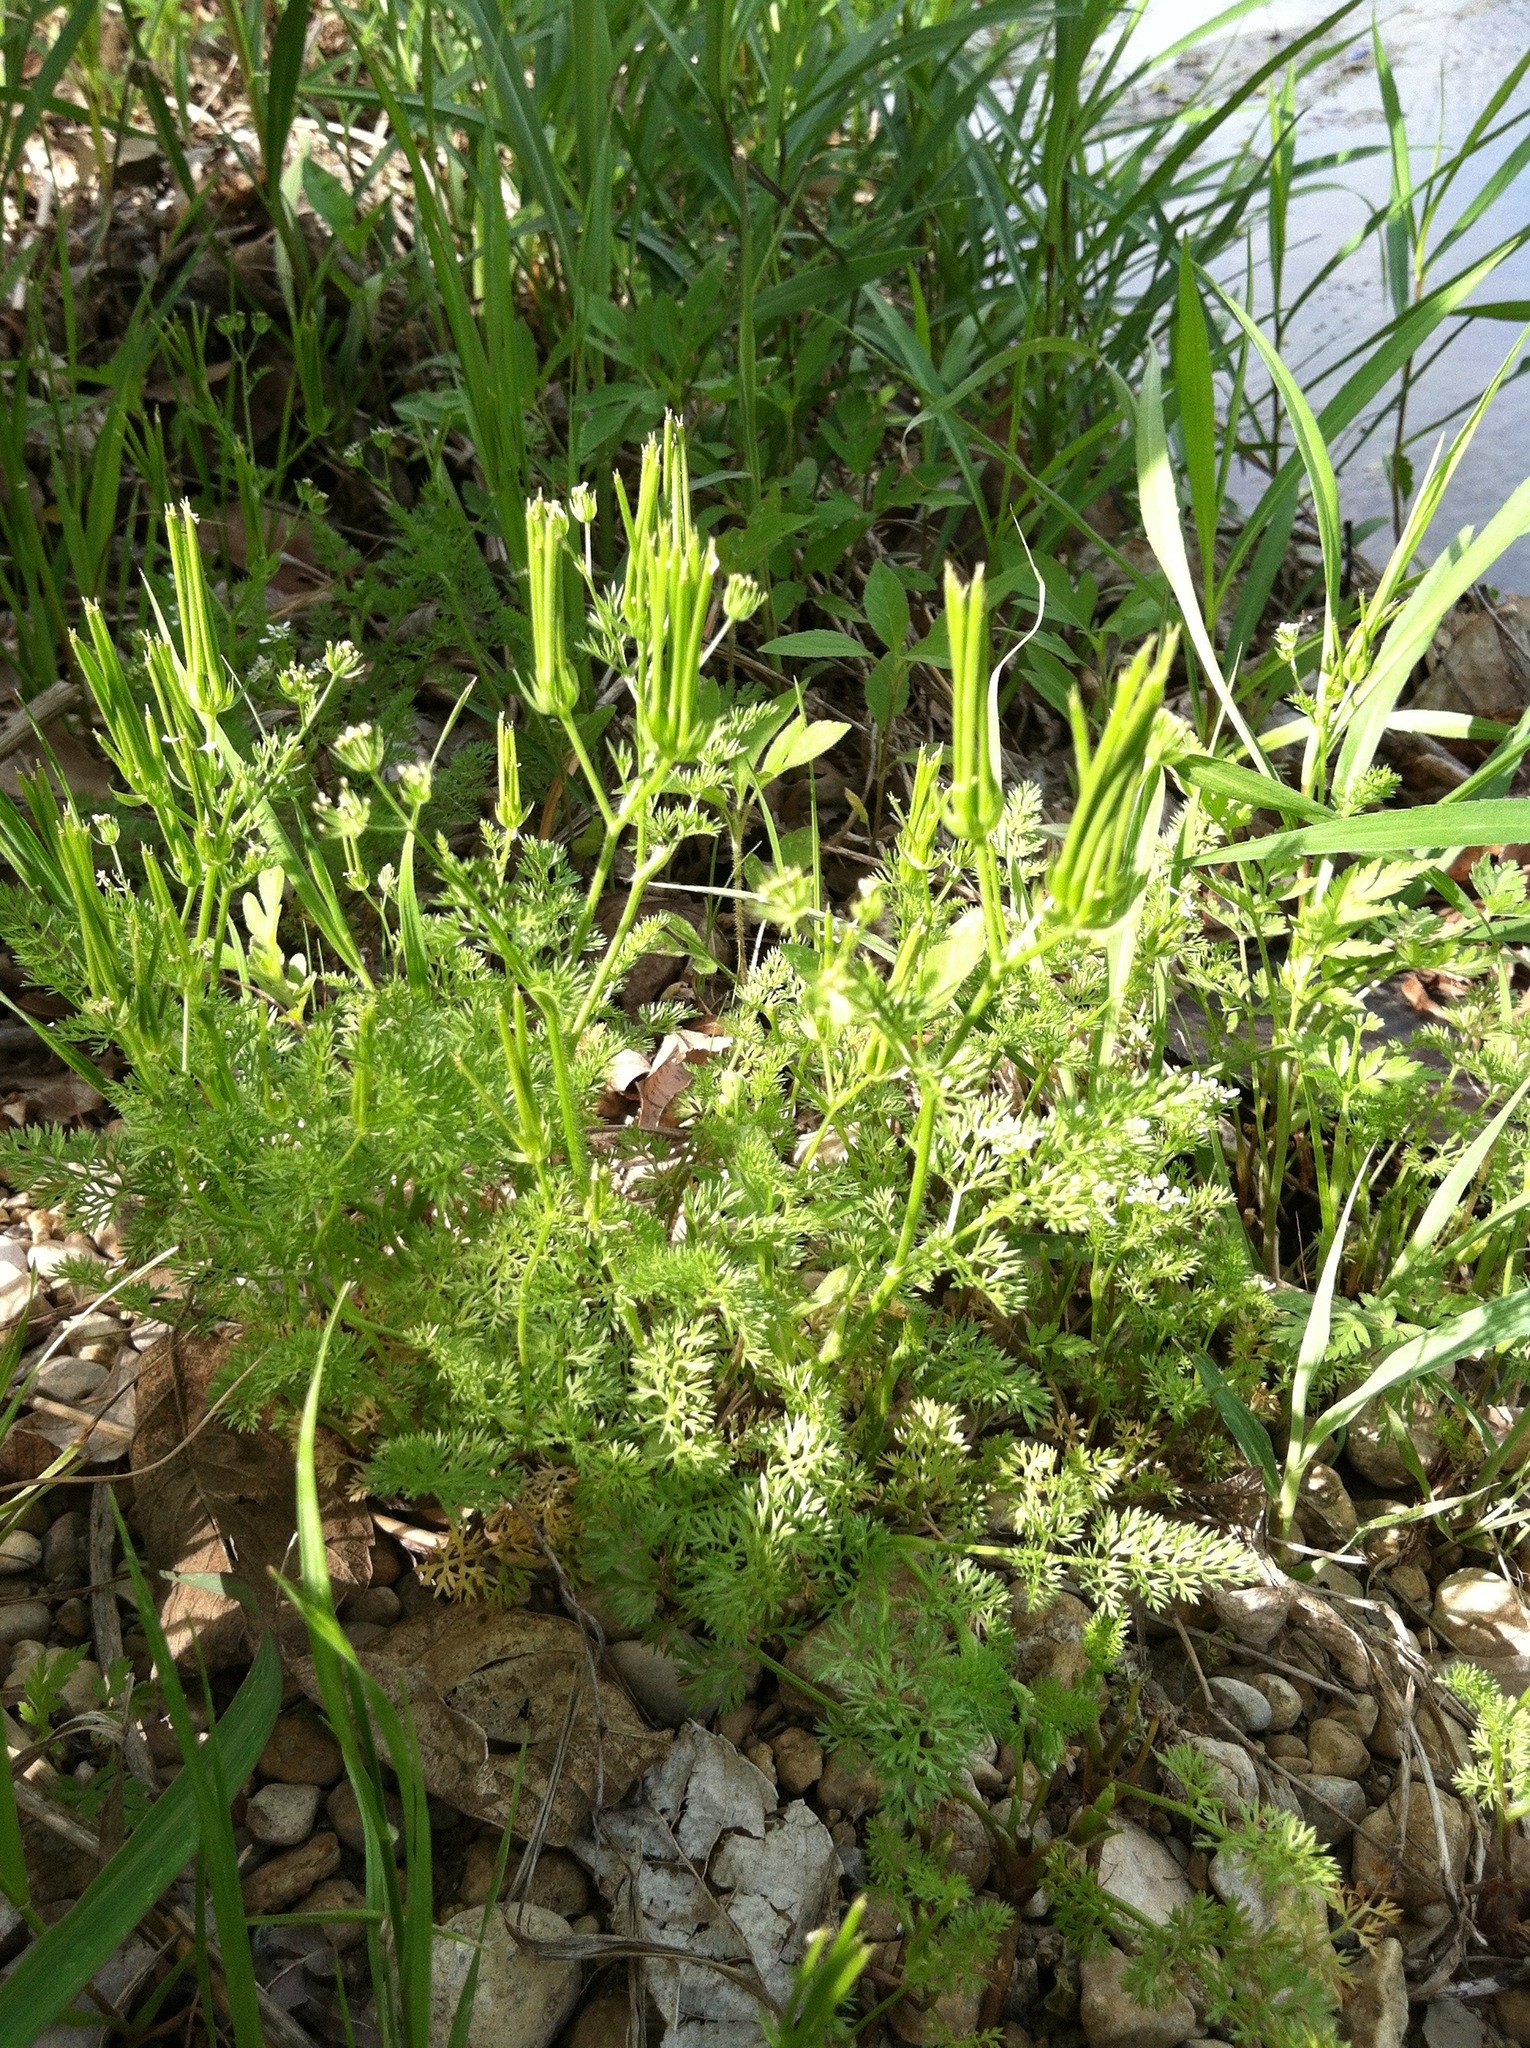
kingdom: Plantae
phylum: Tracheophyta
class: Magnoliopsida
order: Apiales
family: Apiaceae
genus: Scandix
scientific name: Scandix pecten-veneris
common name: Shepherd's-needle
